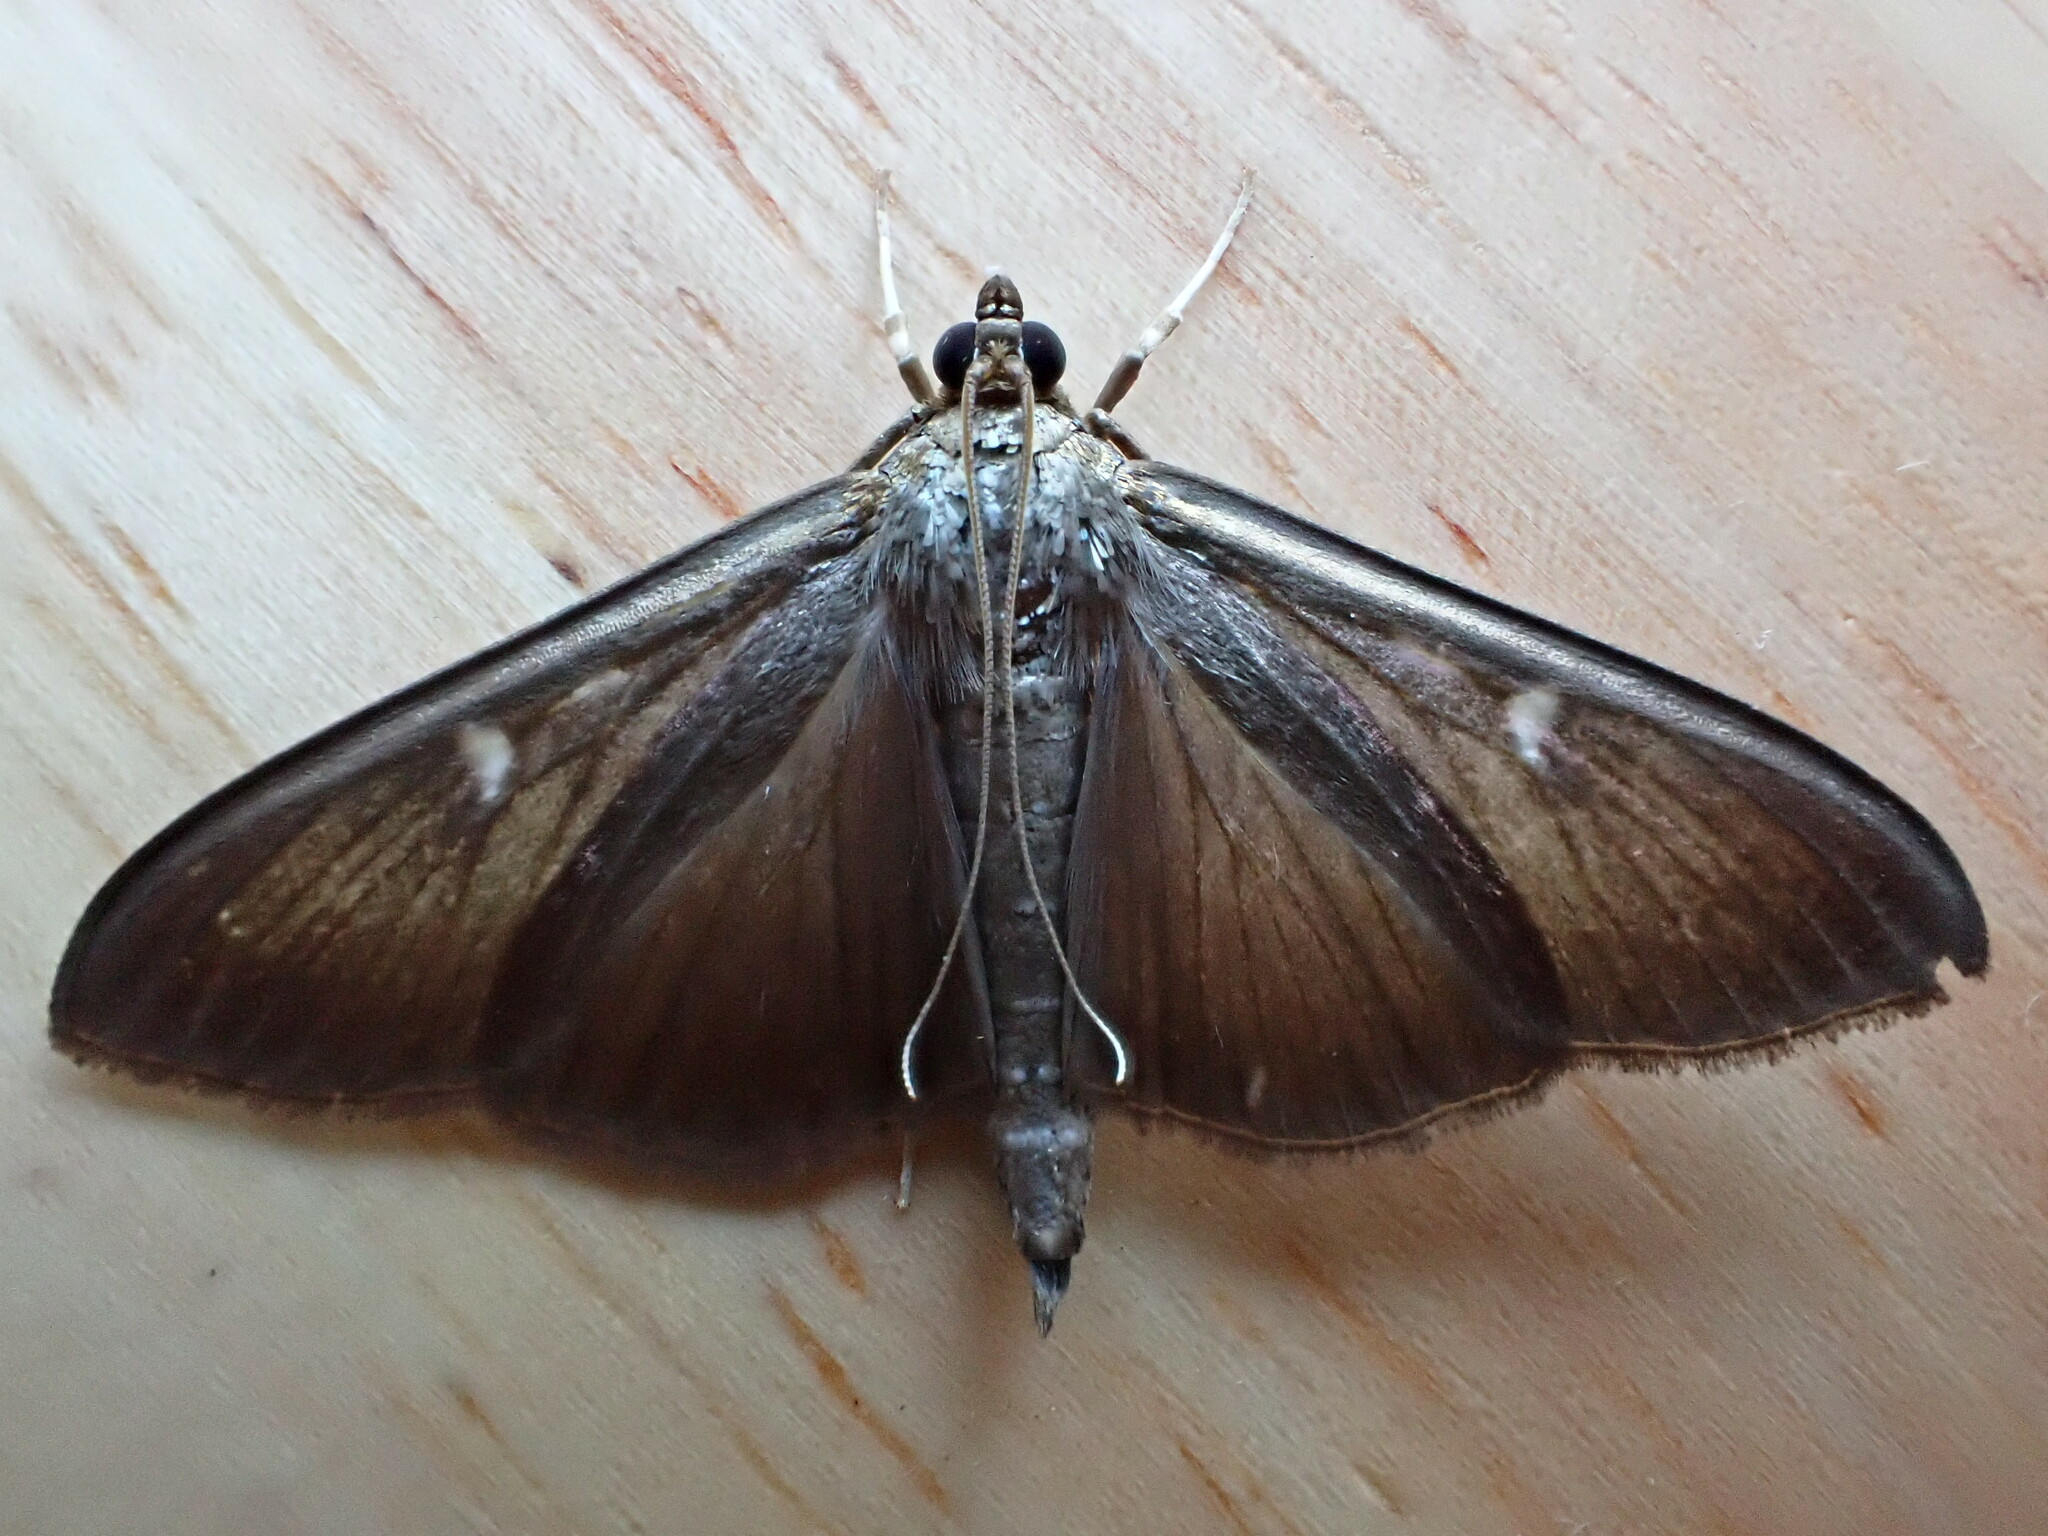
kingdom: Animalia
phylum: Arthropoda
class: Insecta
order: Lepidoptera
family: Crambidae
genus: Cydalima
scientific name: Cydalima perspectalis
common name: Box tree moth
